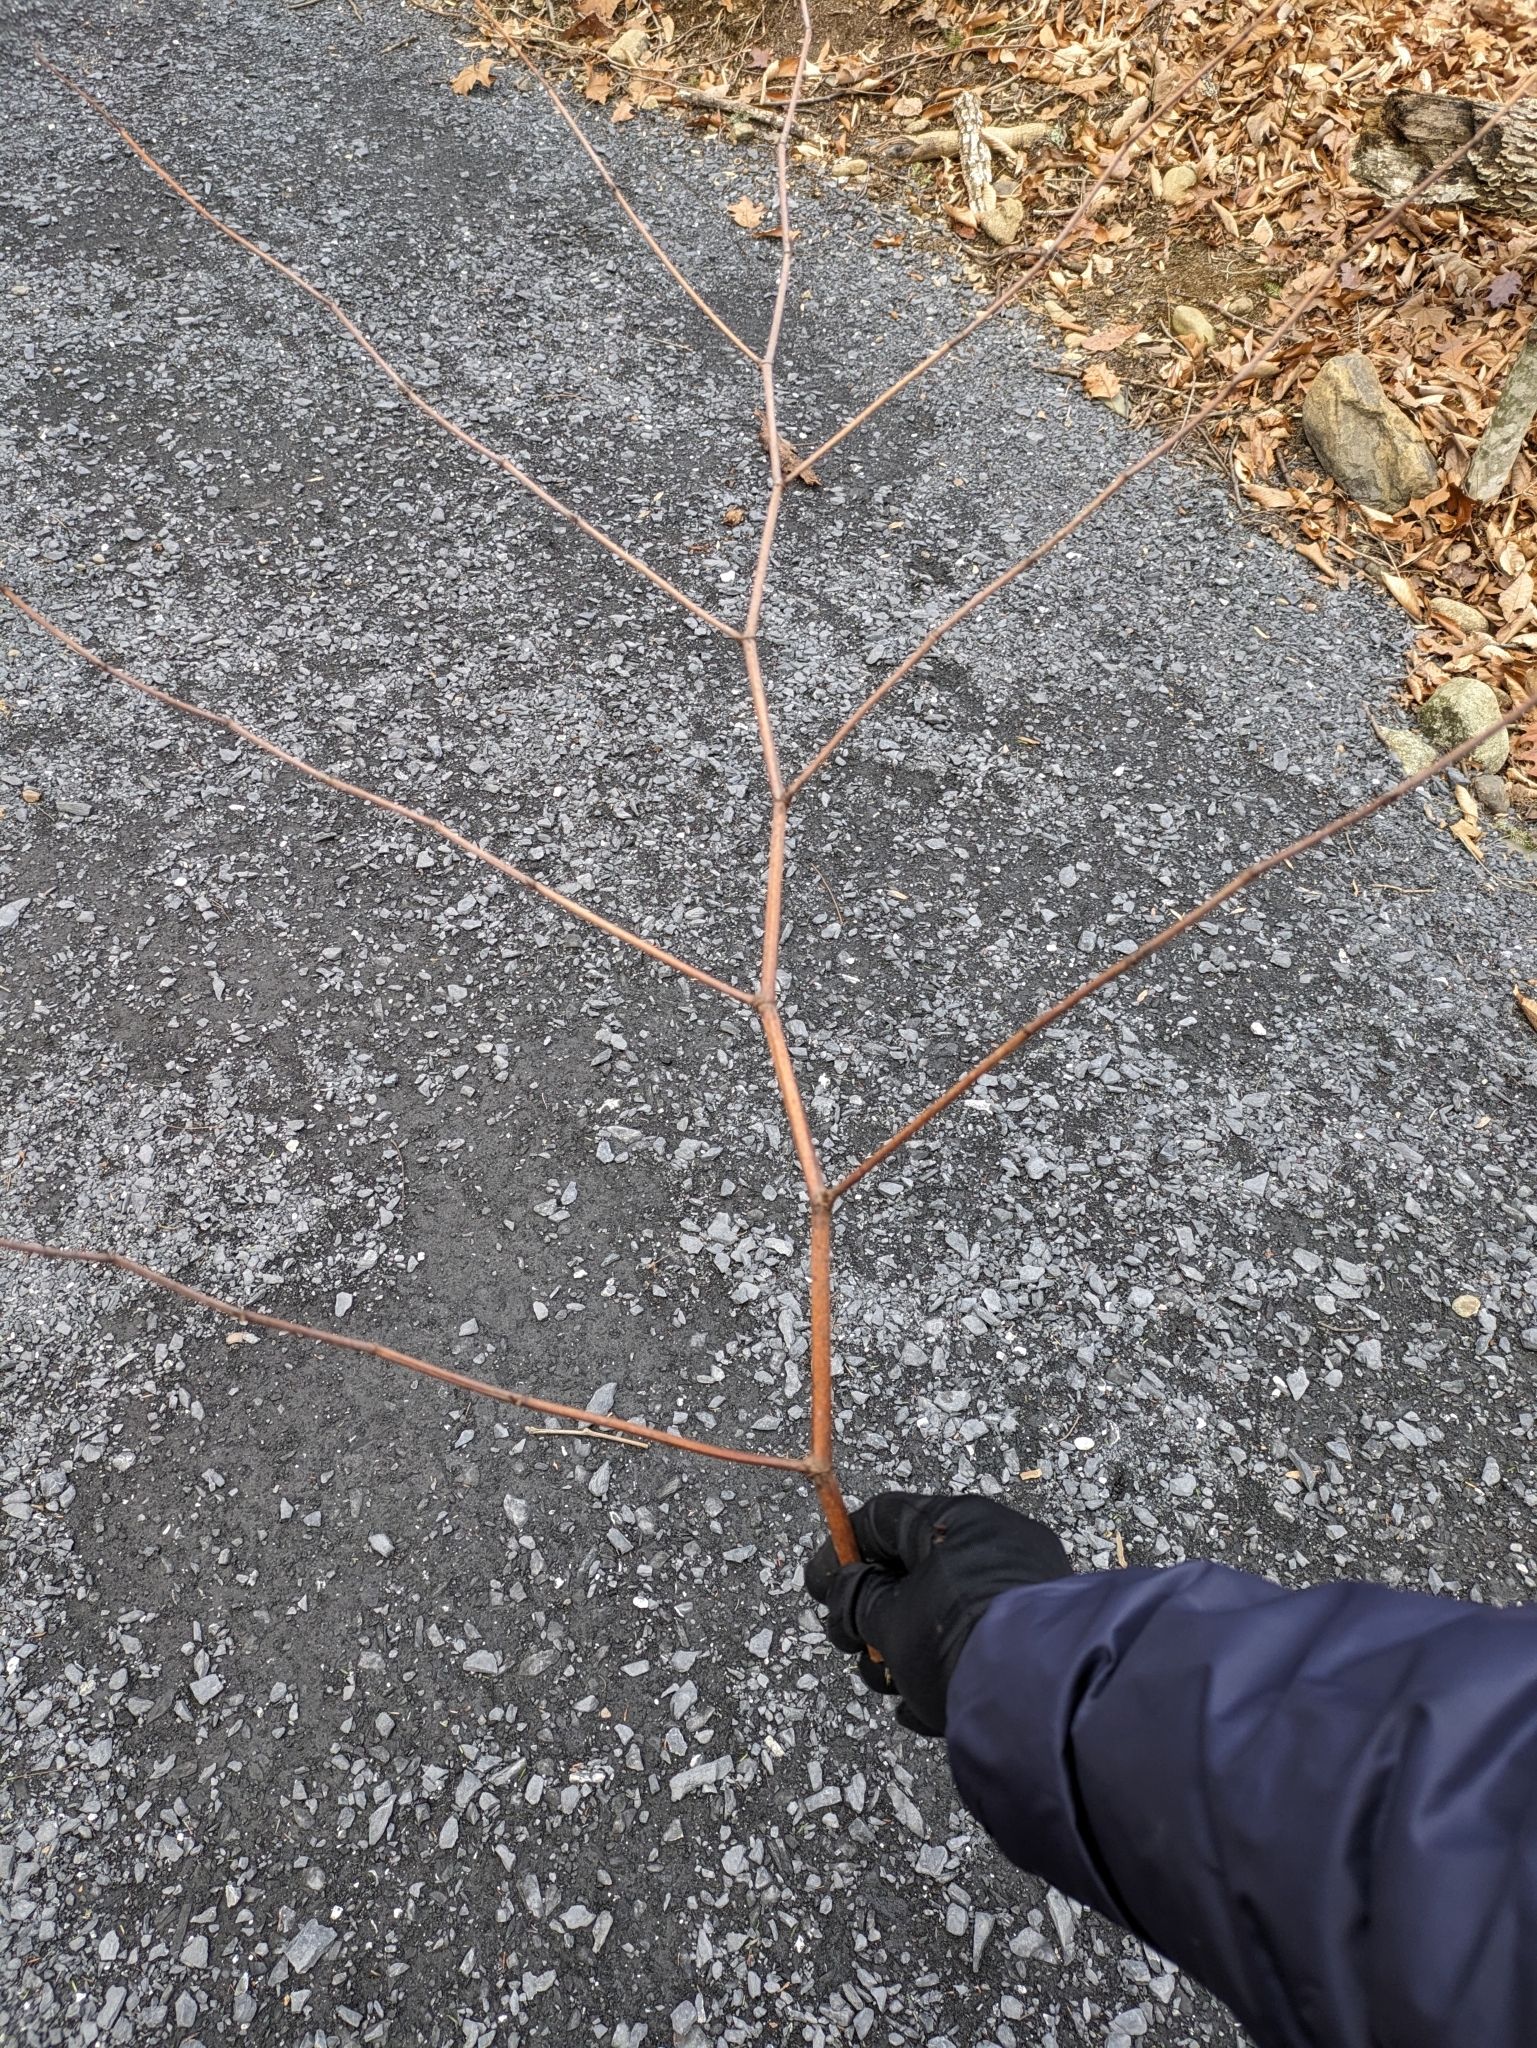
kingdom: Plantae
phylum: Tracheophyta
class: Magnoliopsida
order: Caryophyllales
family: Polygonaceae
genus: Reynoutria
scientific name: Reynoutria japonica
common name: Japanese knotweed
